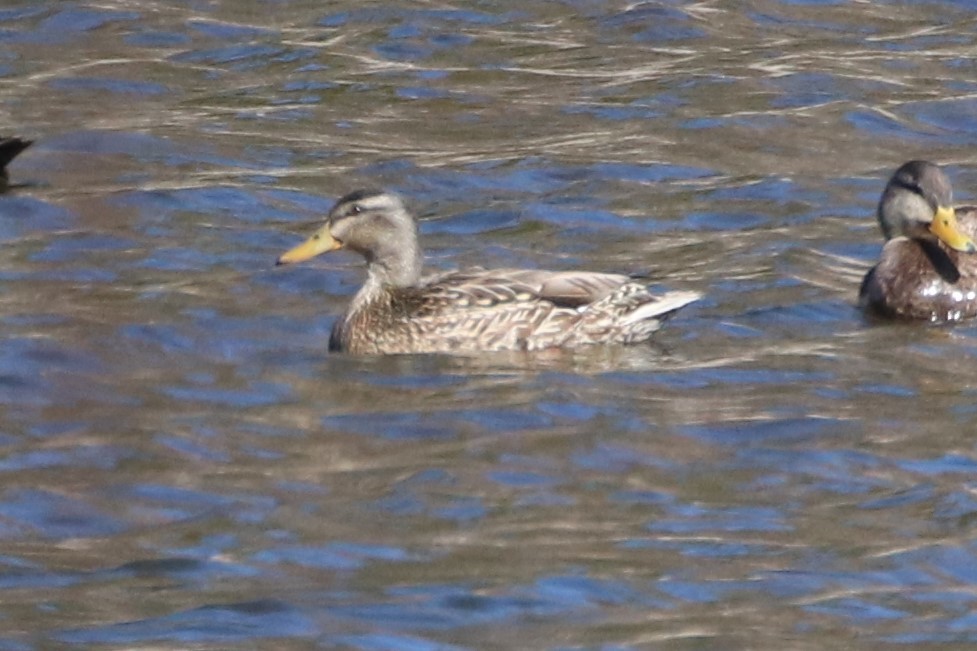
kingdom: Animalia
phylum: Chordata
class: Aves
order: Anseriformes
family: Anatidae
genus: Anas
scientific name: Anas platyrhynchos
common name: Mallard
